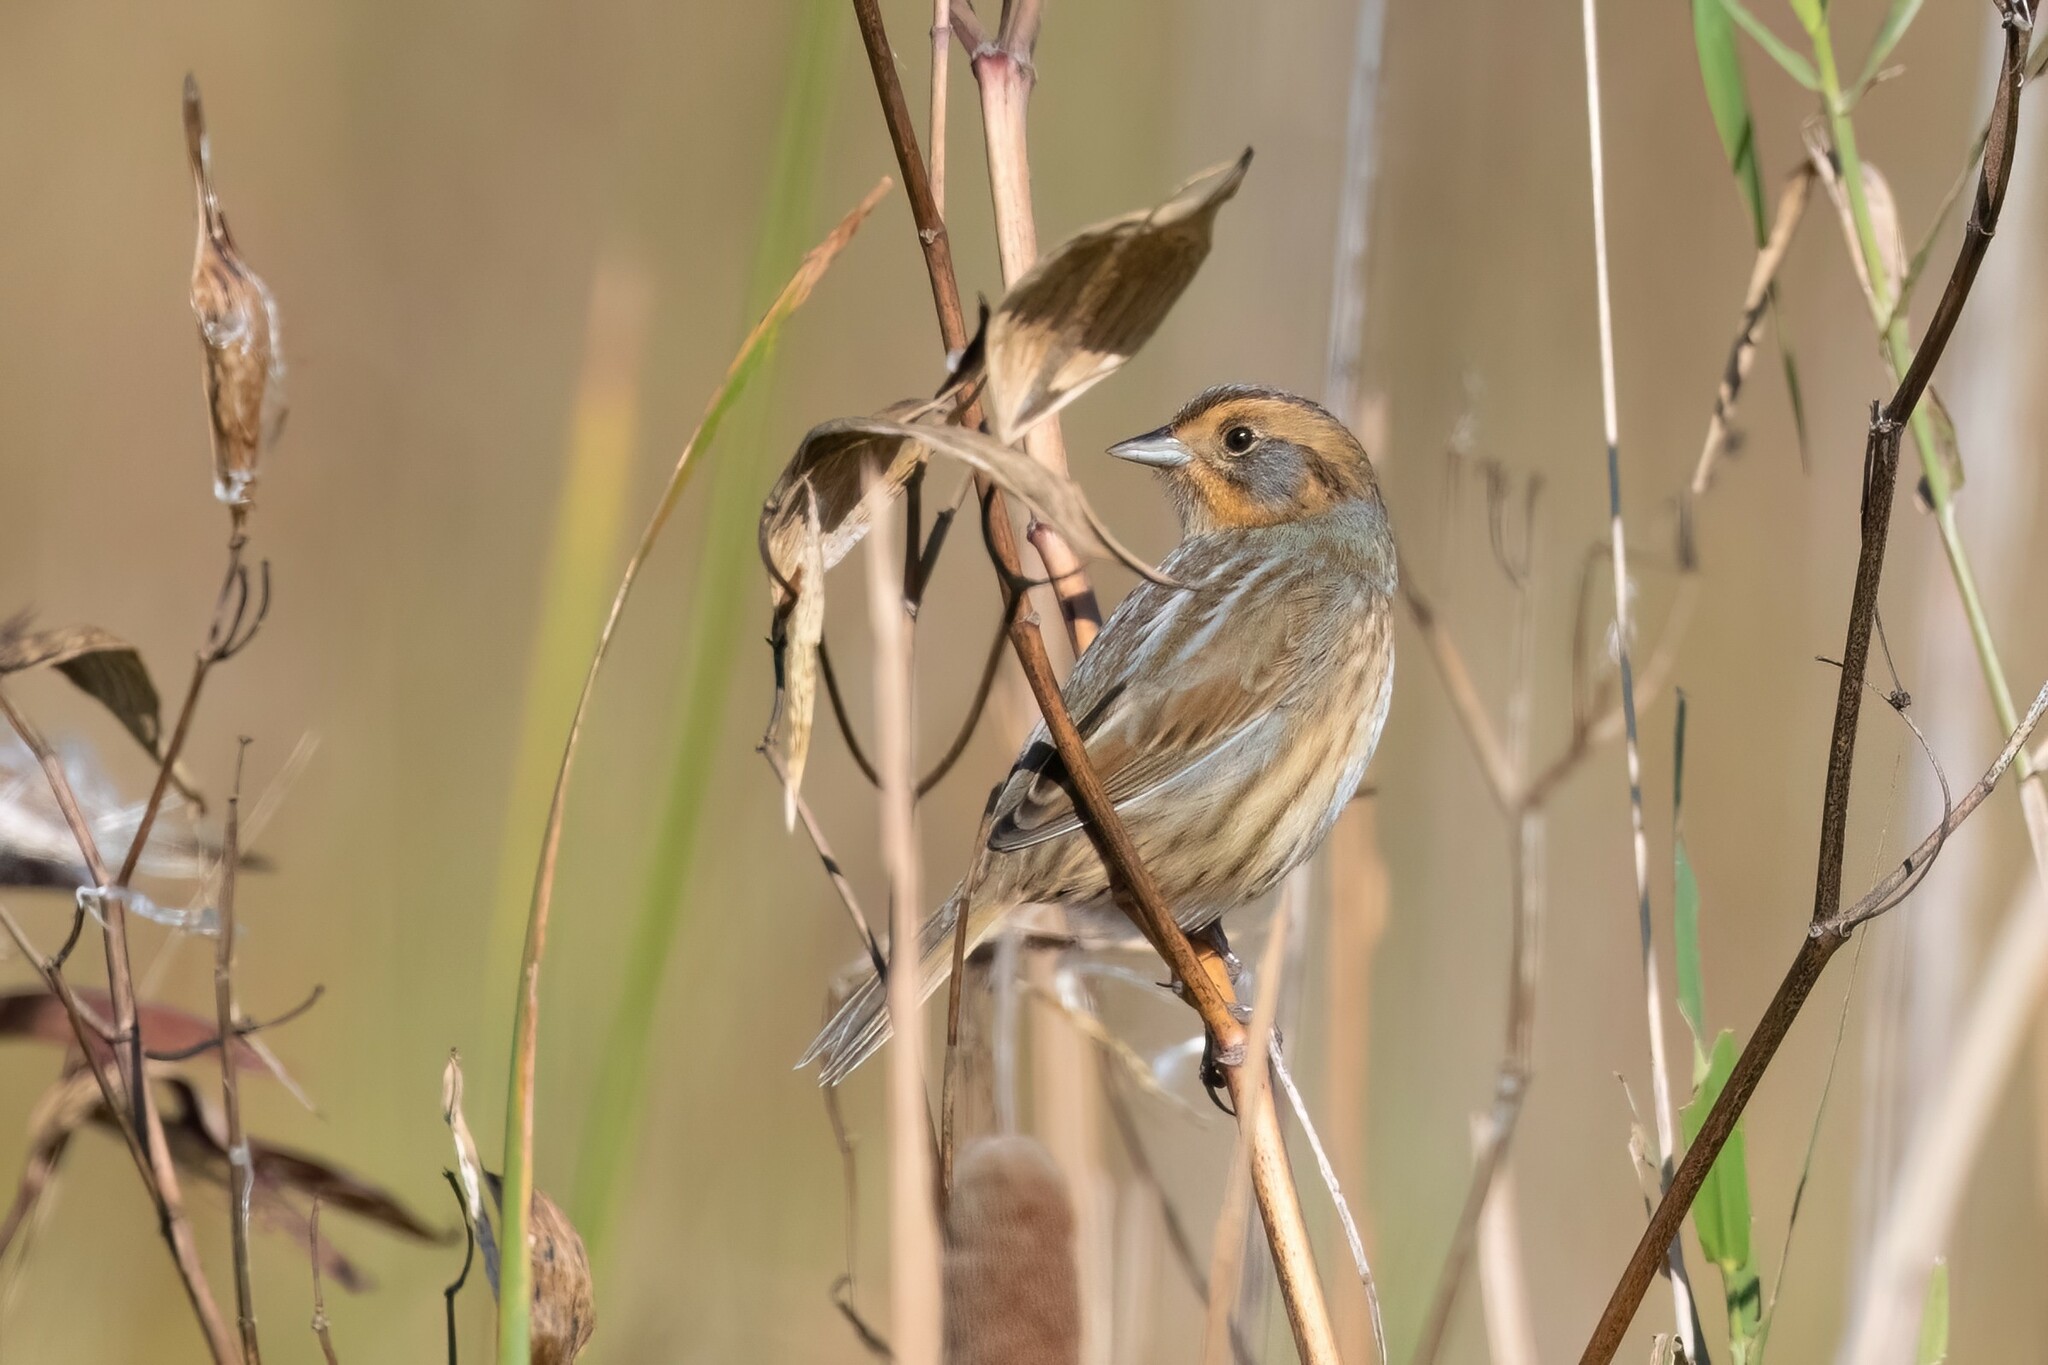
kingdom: Animalia
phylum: Chordata
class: Aves
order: Passeriformes
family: Passerellidae
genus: Ammospiza
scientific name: Ammospiza nelsoni
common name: Nelson's sparrow
